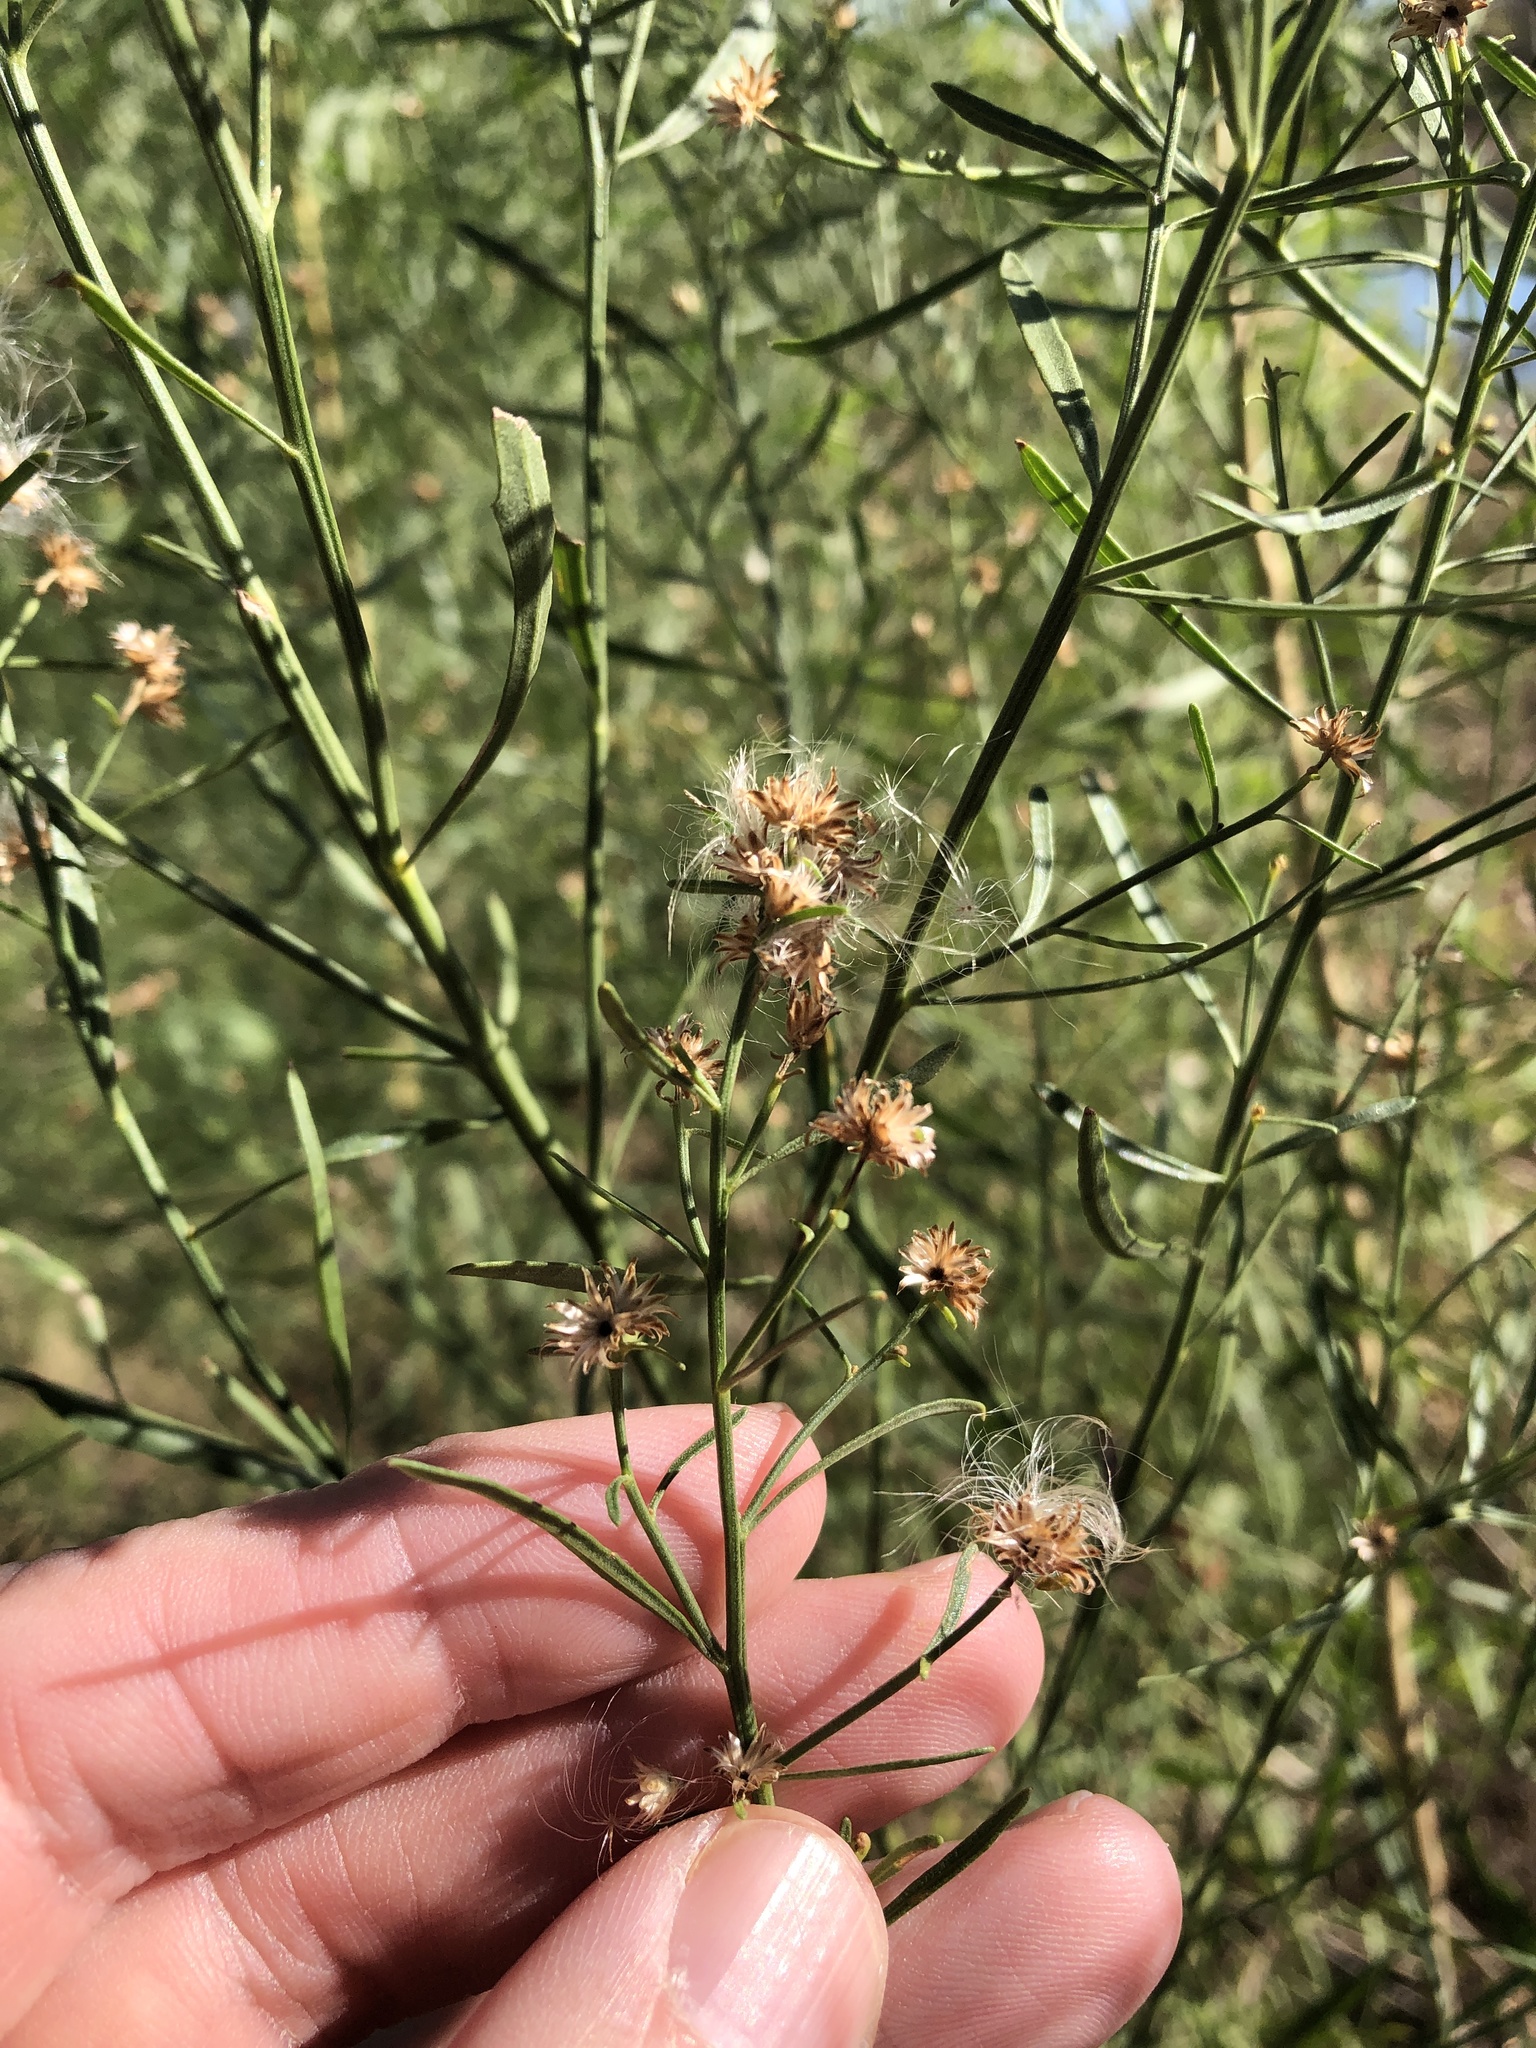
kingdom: Plantae
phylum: Tracheophyta
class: Magnoliopsida
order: Asterales
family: Asteraceae
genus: Baccharis
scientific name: Baccharis neglecta
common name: Roosevelt-weed
